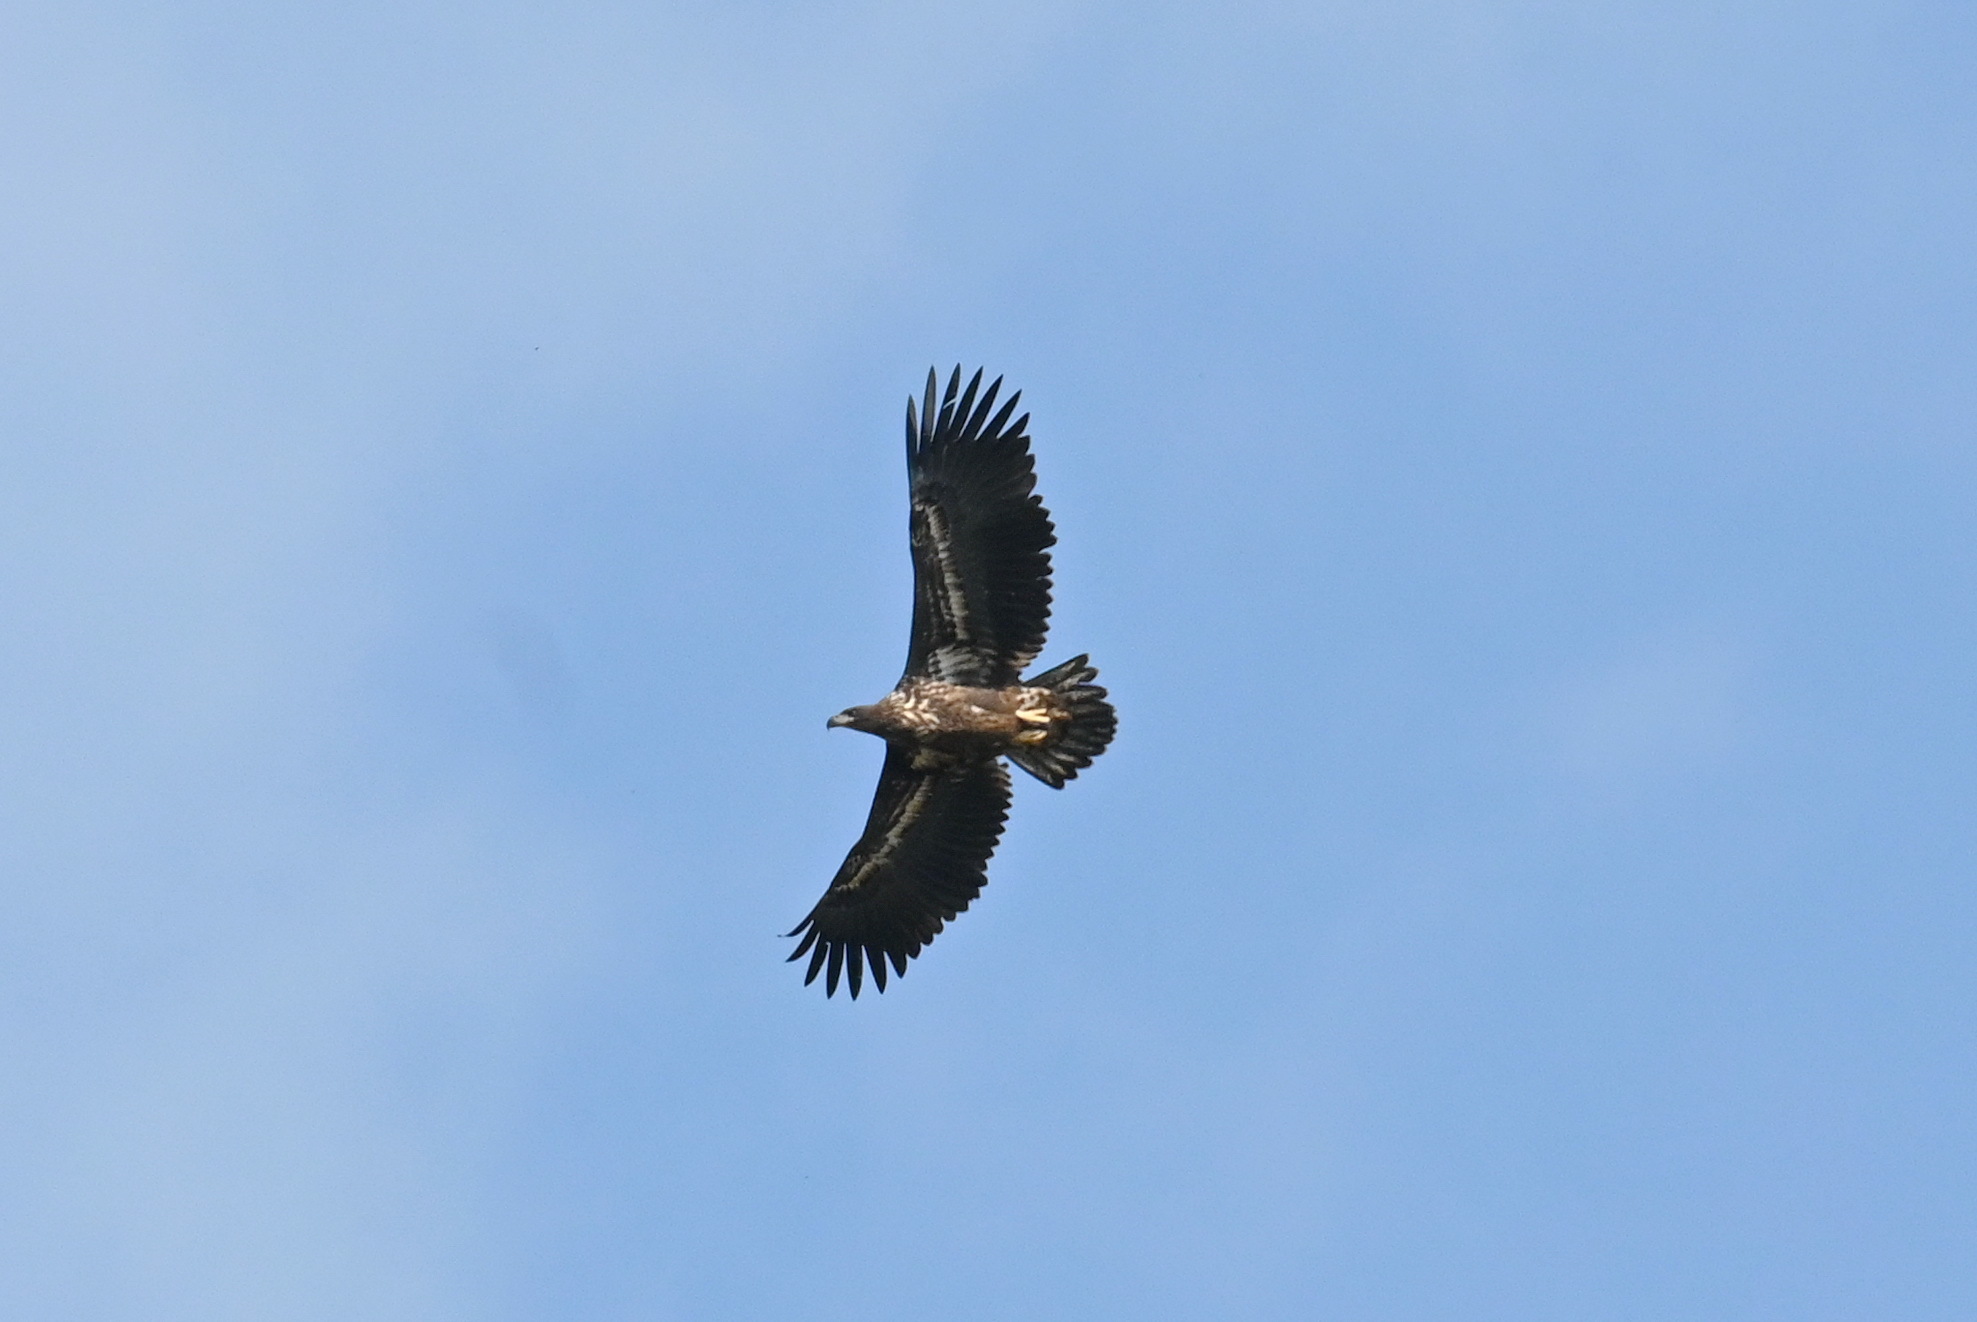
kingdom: Animalia
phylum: Chordata
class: Aves
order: Accipitriformes
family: Accipitridae
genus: Haliaeetus
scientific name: Haliaeetus albicilla
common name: White-tailed eagle
